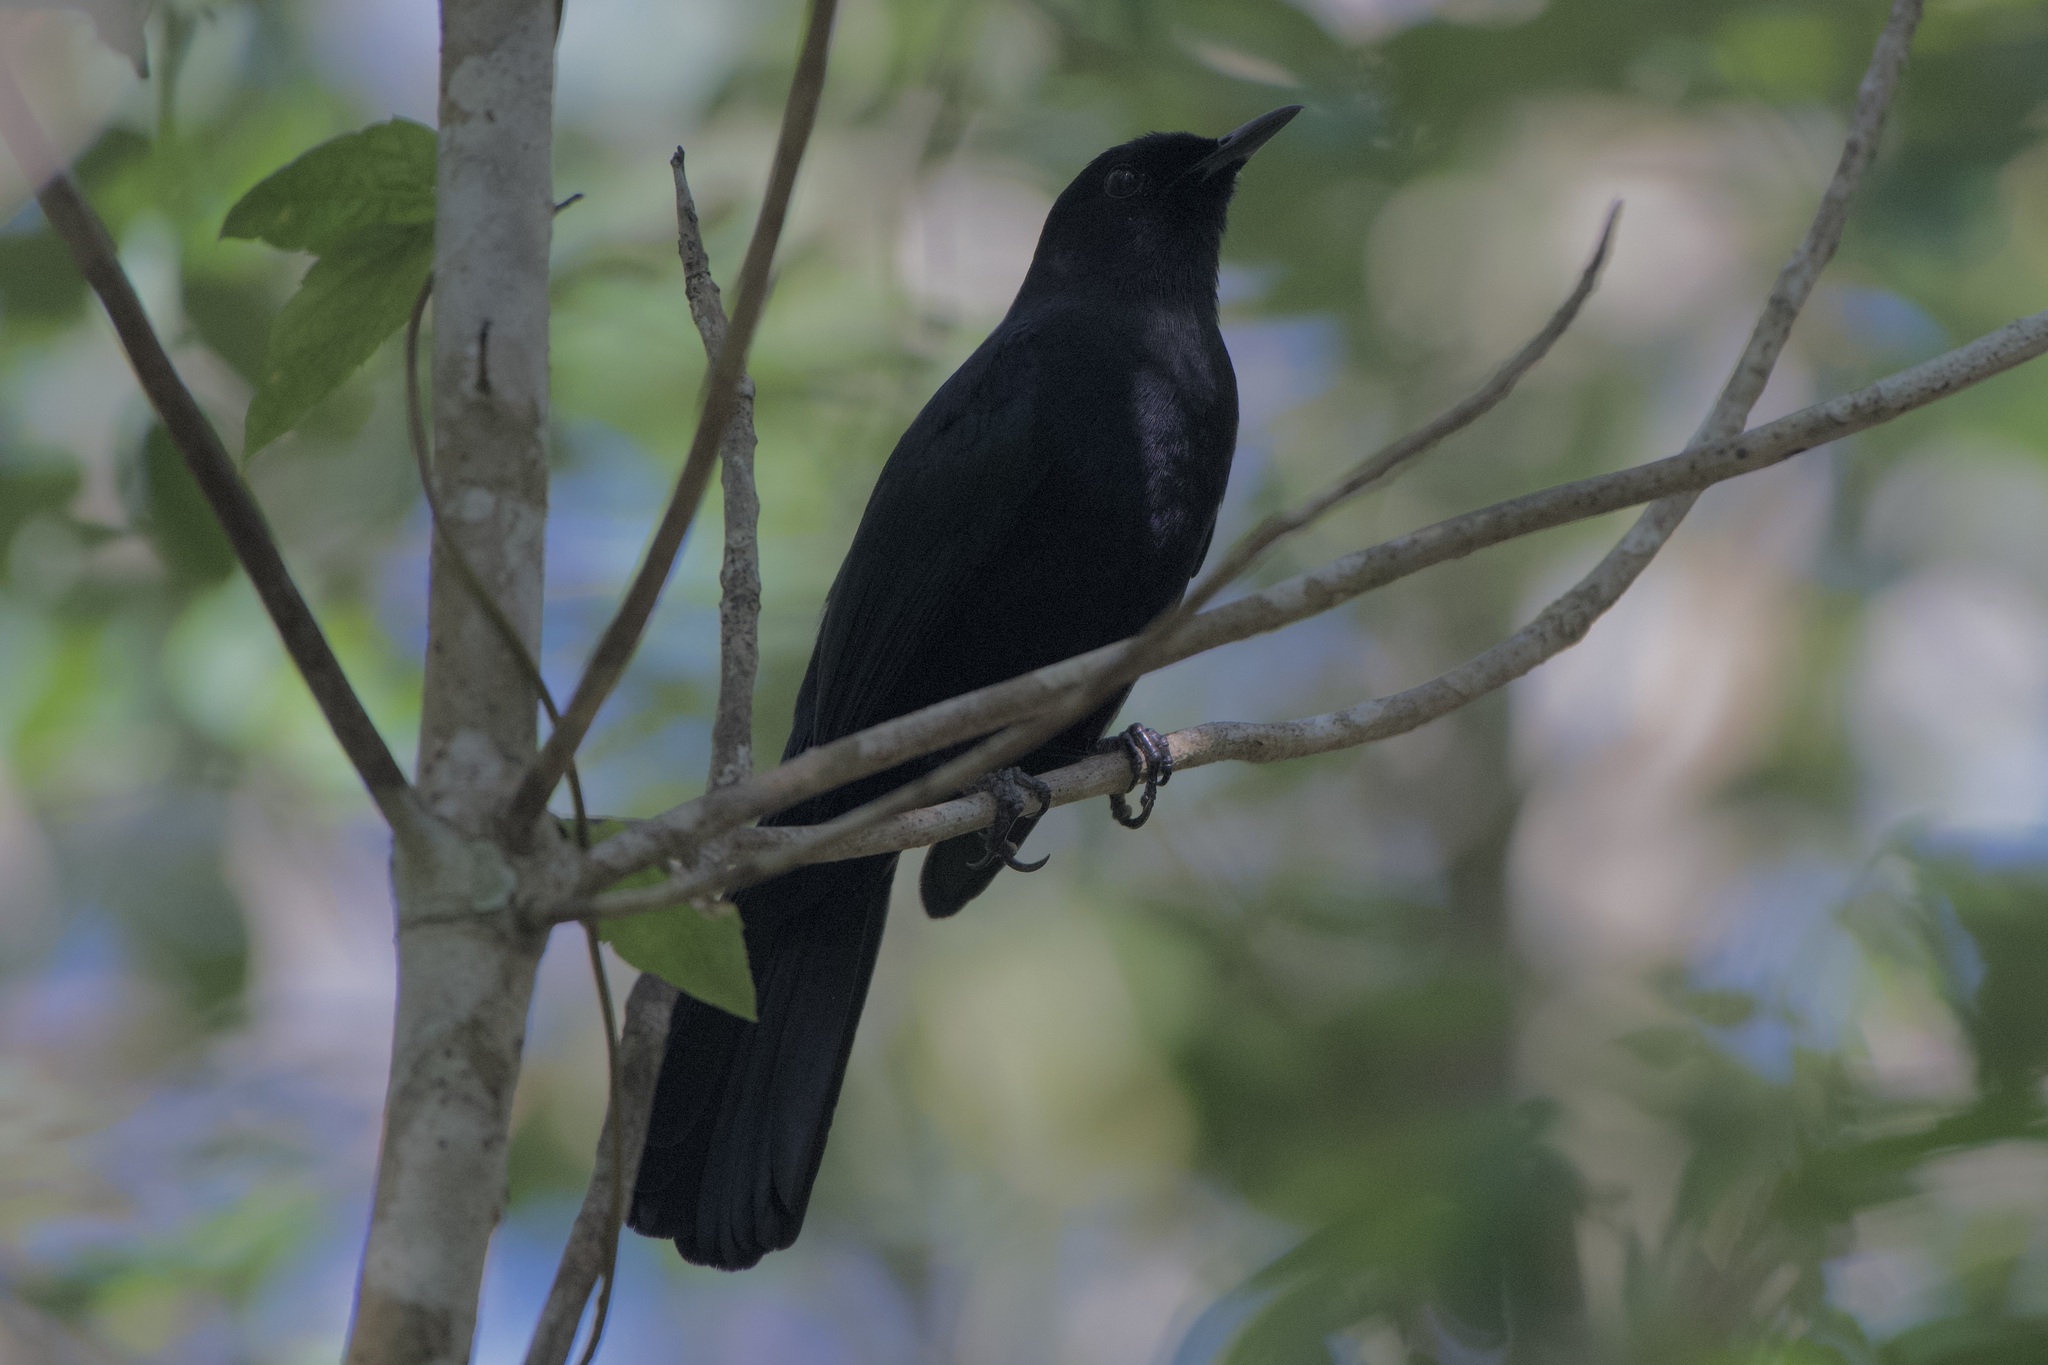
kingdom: Animalia
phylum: Chordata
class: Aves
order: Passeriformes
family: Mimidae
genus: Melanoptila
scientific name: Melanoptila glabrirostris
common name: Black catbird
